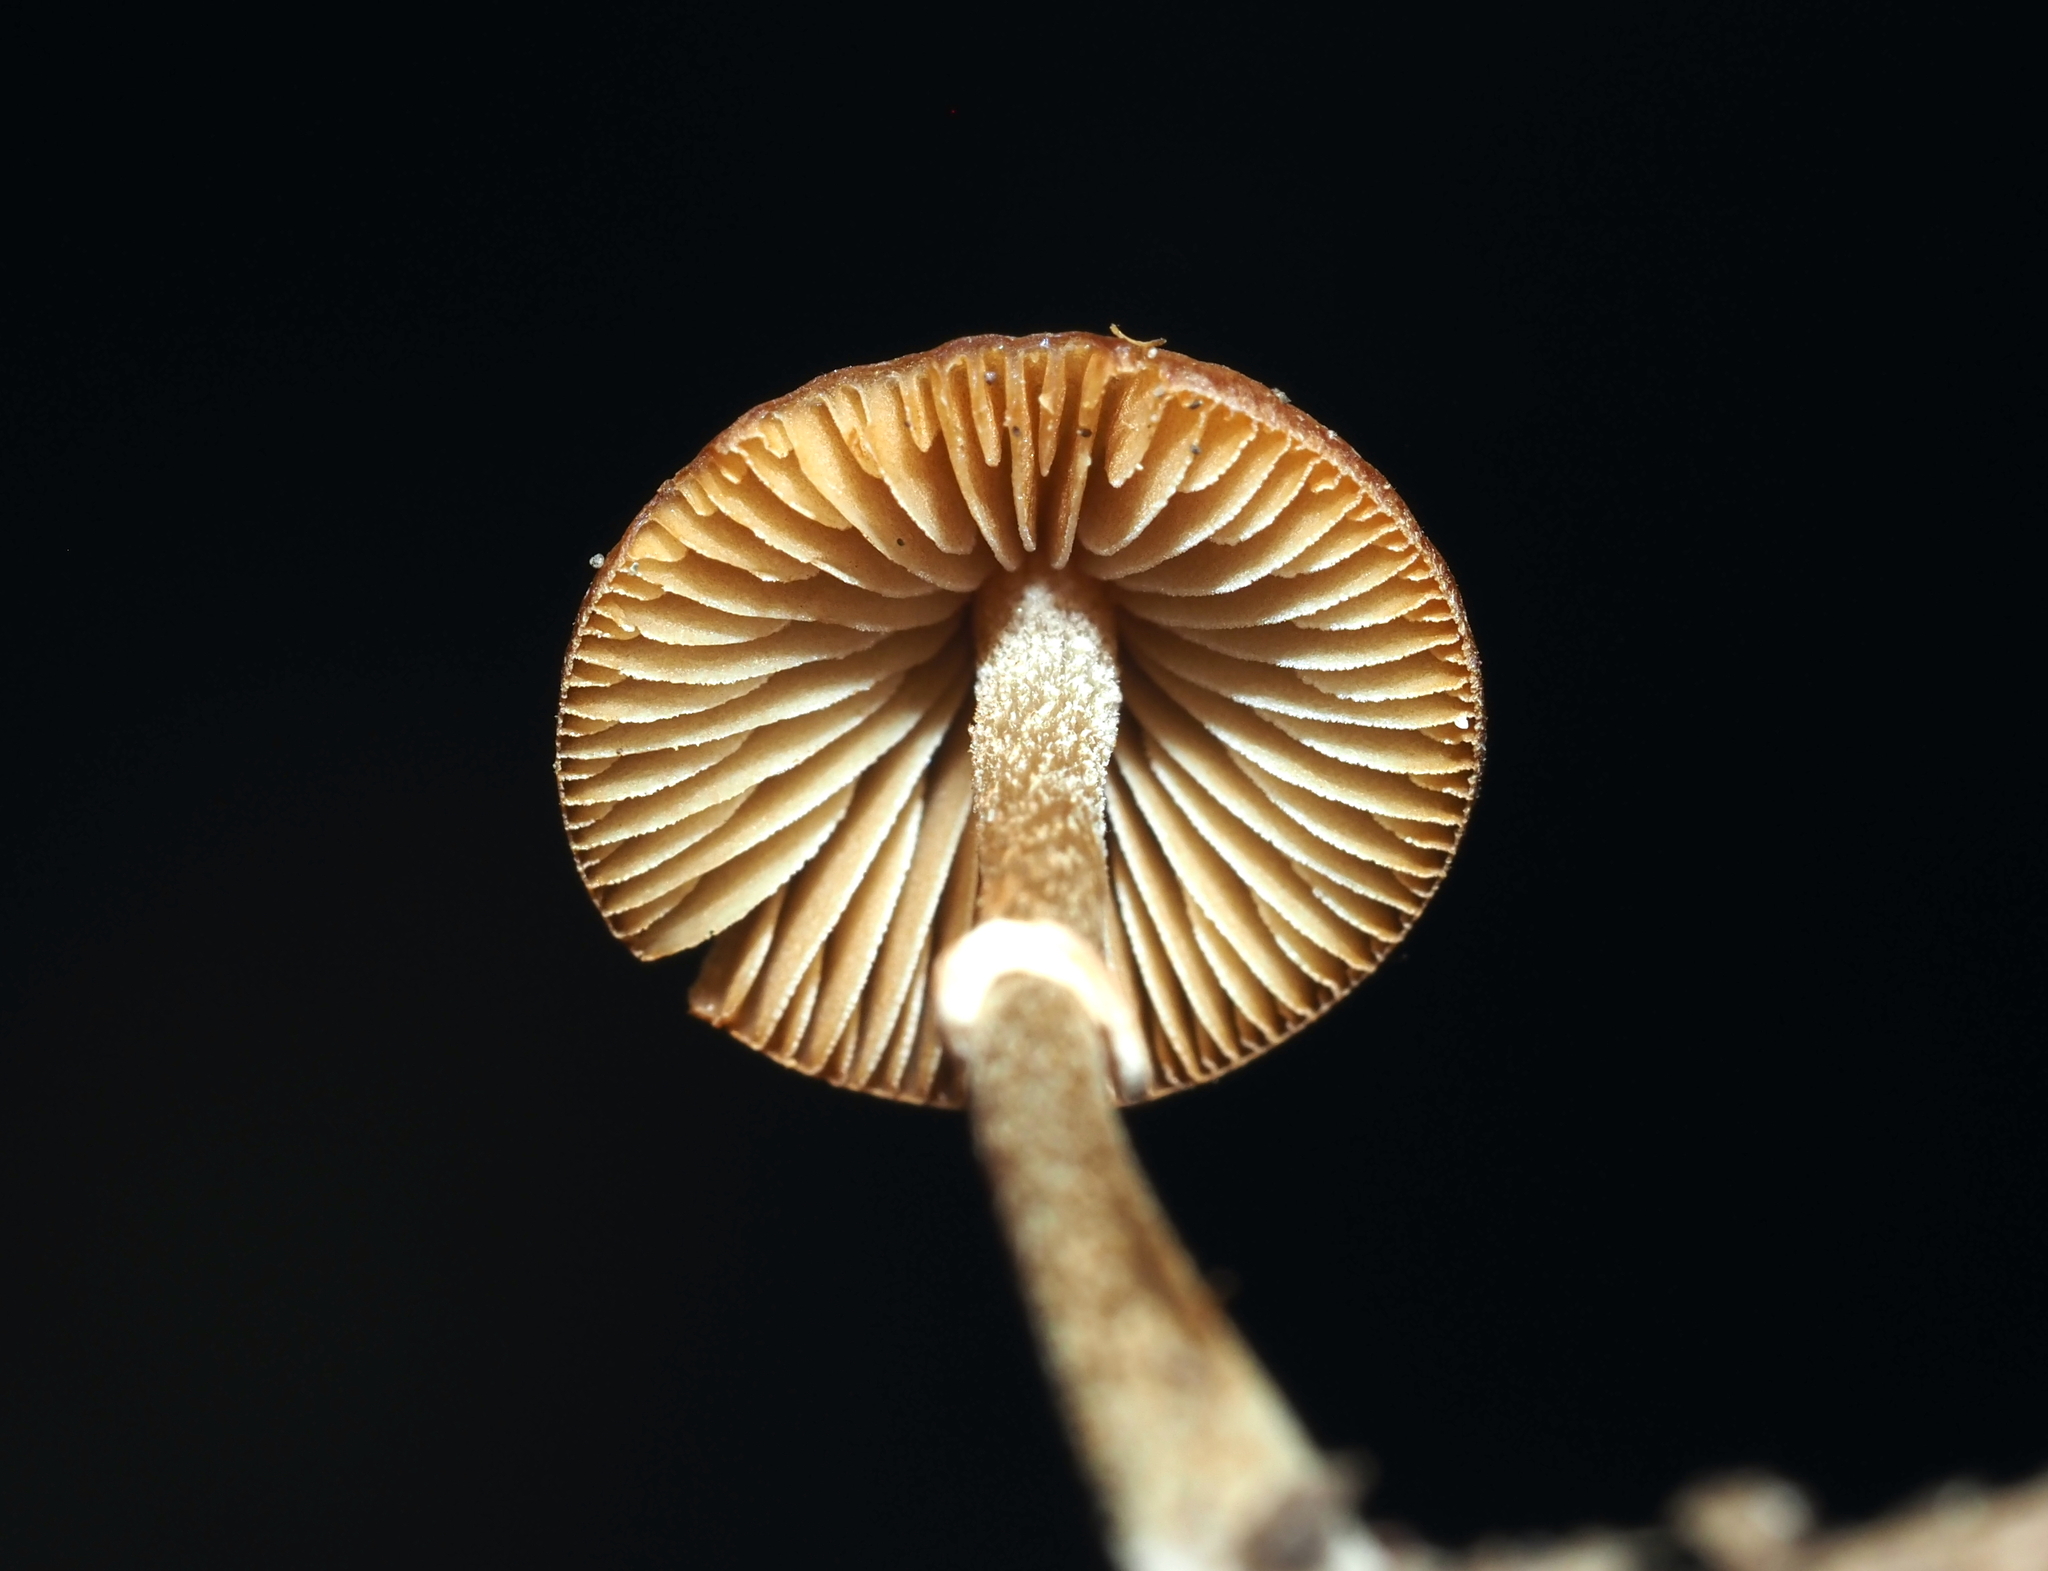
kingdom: Fungi
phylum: Basidiomycota
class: Agaricomycetes
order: Agaricales
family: Bolbitiaceae
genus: Conocybe
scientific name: Conocybe rugosa
